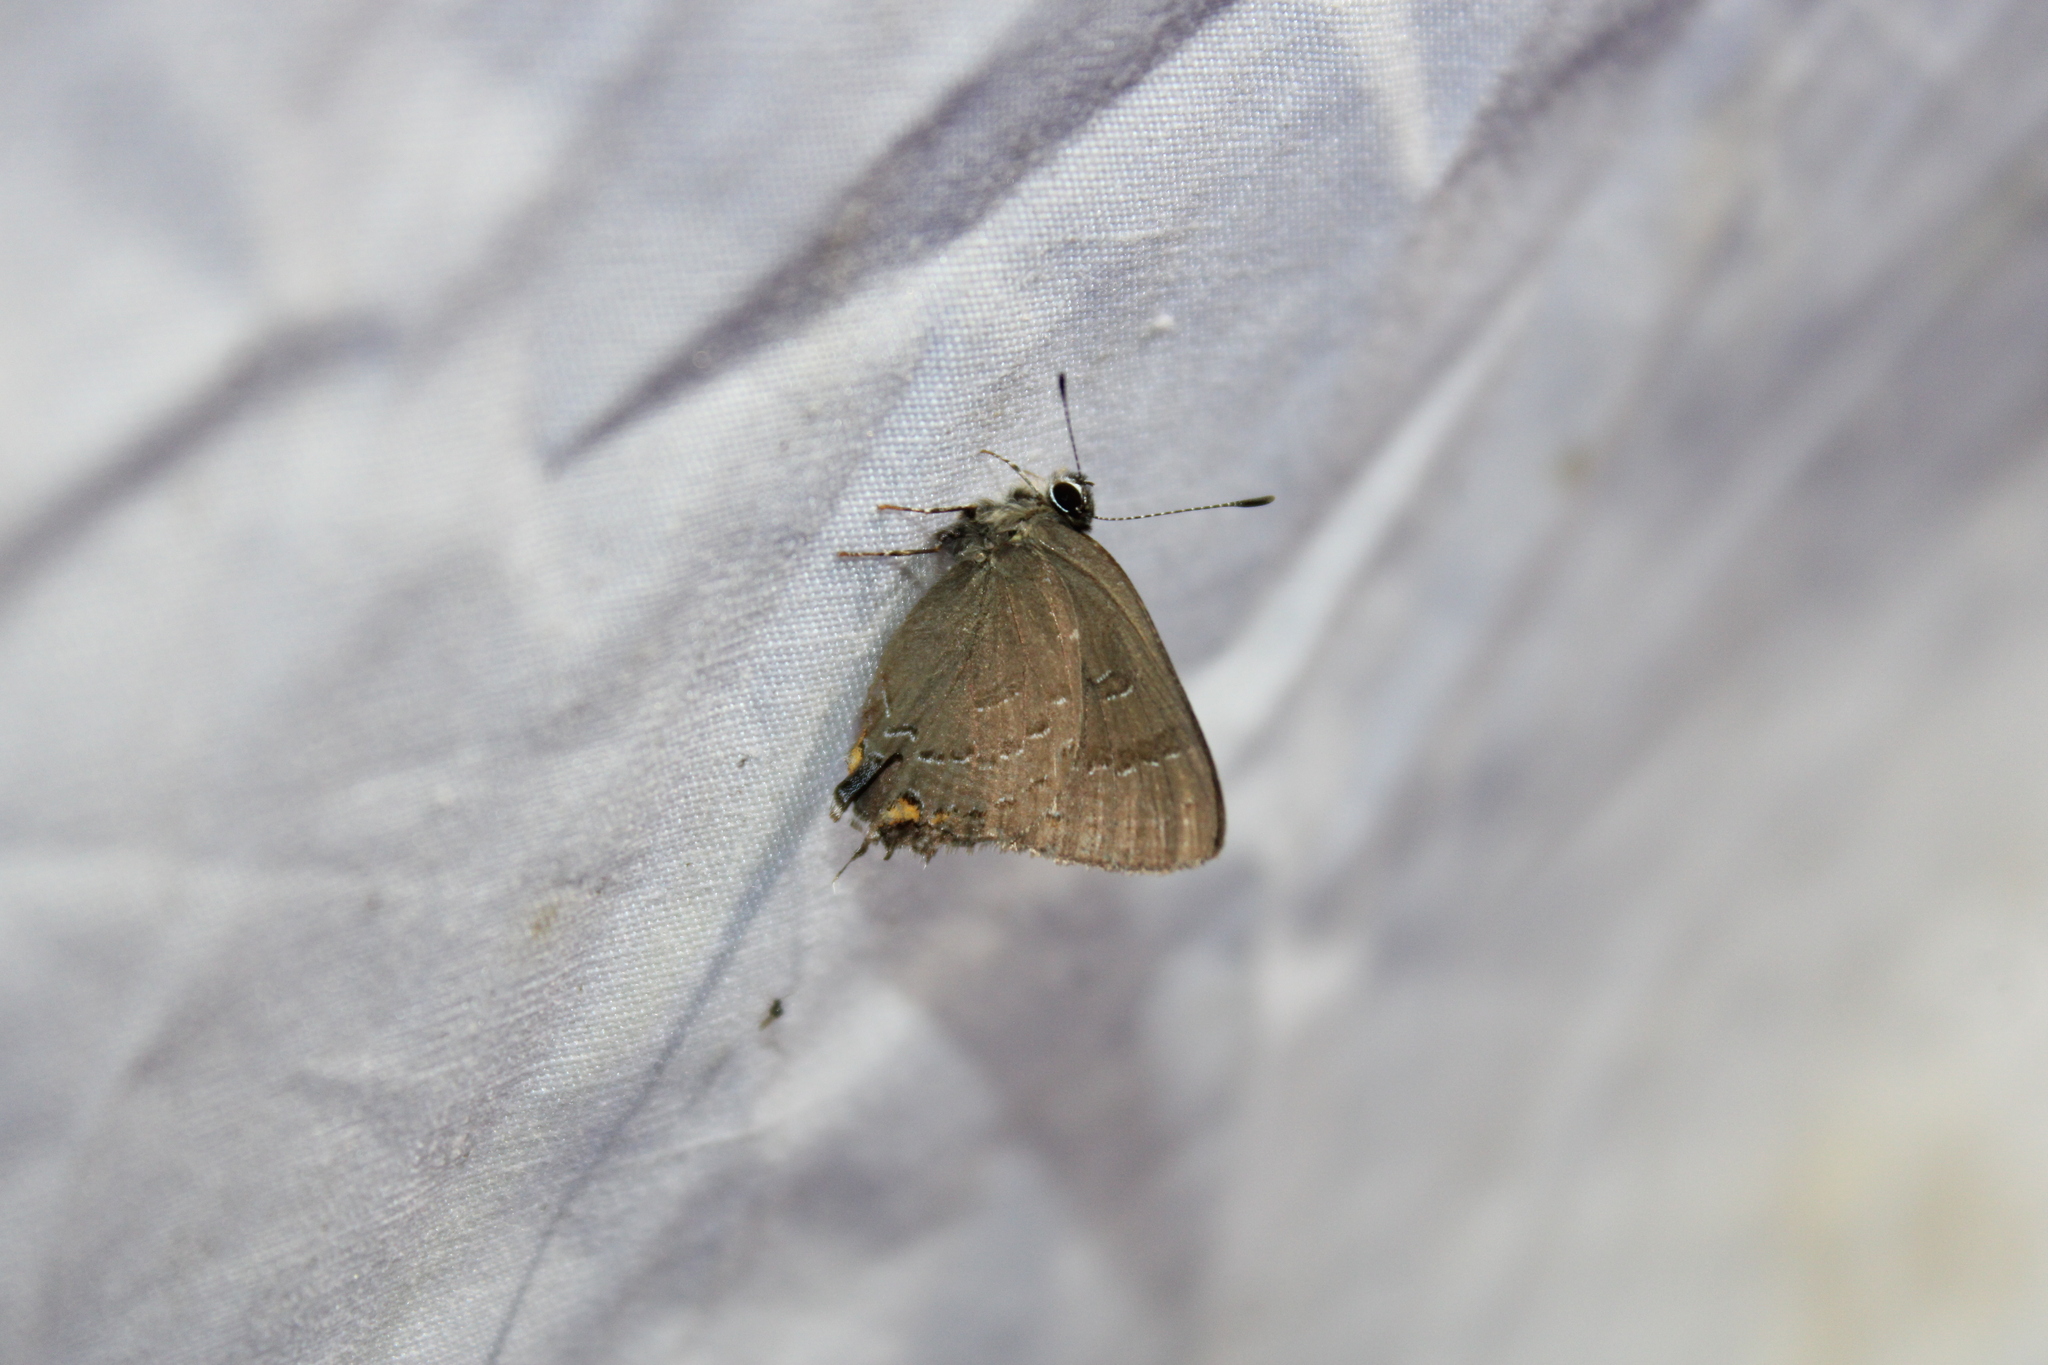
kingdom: Animalia
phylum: Arthropoda
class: Insecta
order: Lepidoptera
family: Lycaenidae
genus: Satyrium
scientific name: Satyrium calanus
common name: Banded hairstreak
